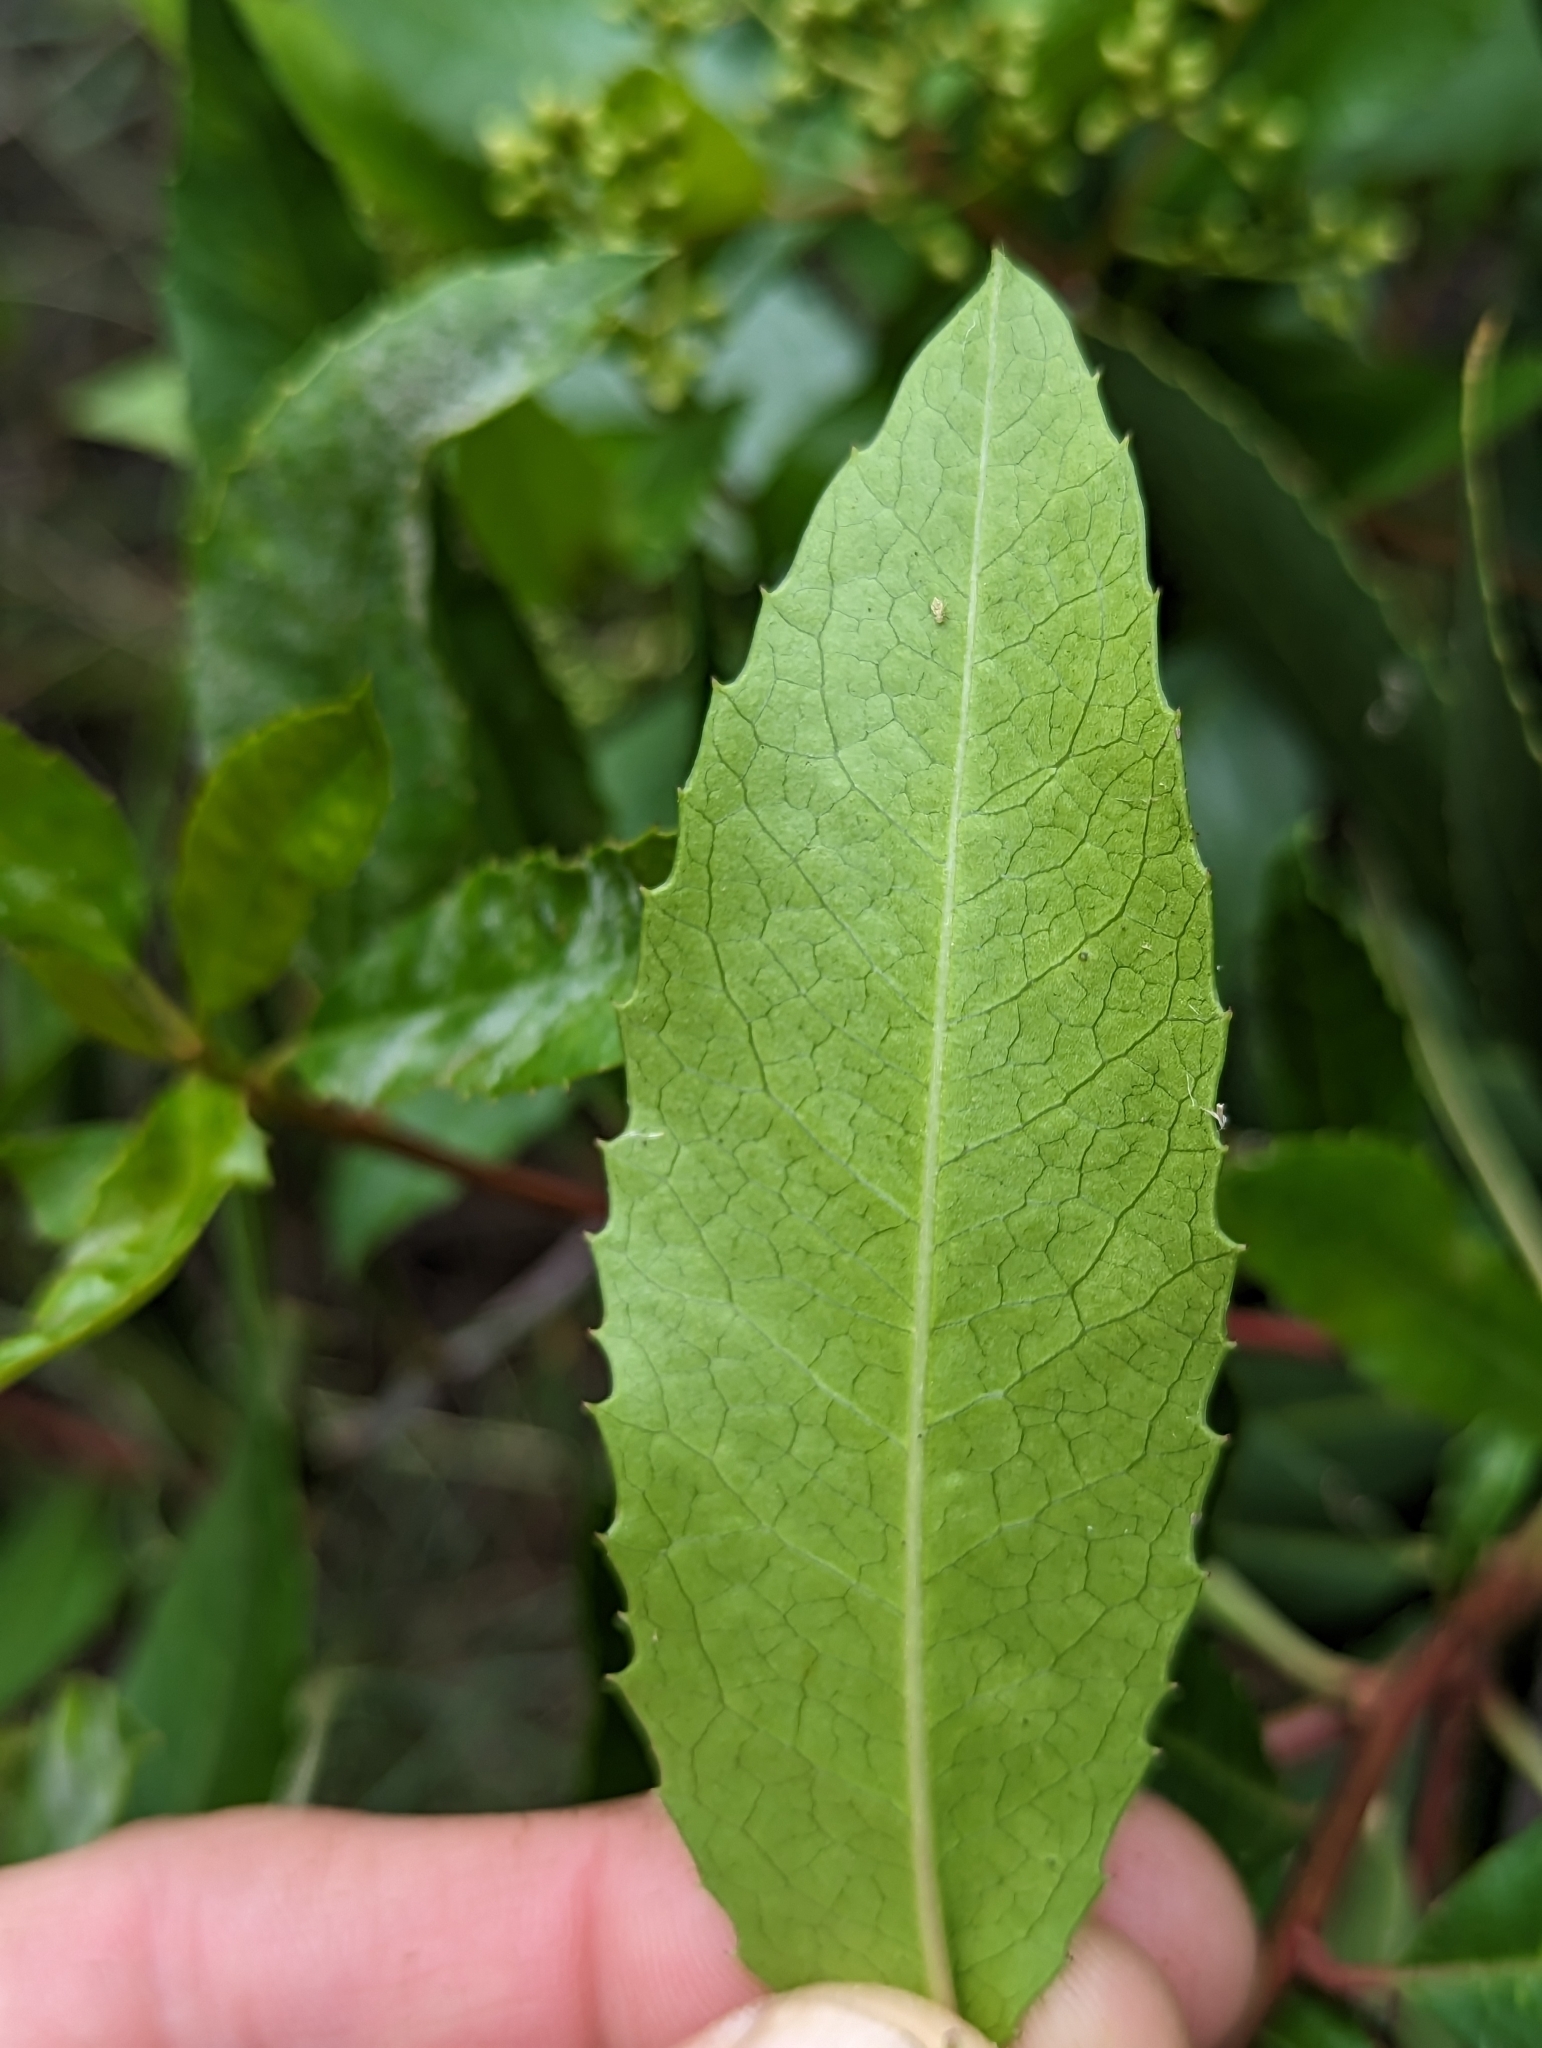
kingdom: Plantae
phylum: Tracheophyta
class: Magnoliopsida
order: Rosales
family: Rosaceae
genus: Heteromeles
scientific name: Heteromeles arbutifolia
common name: California-holly
